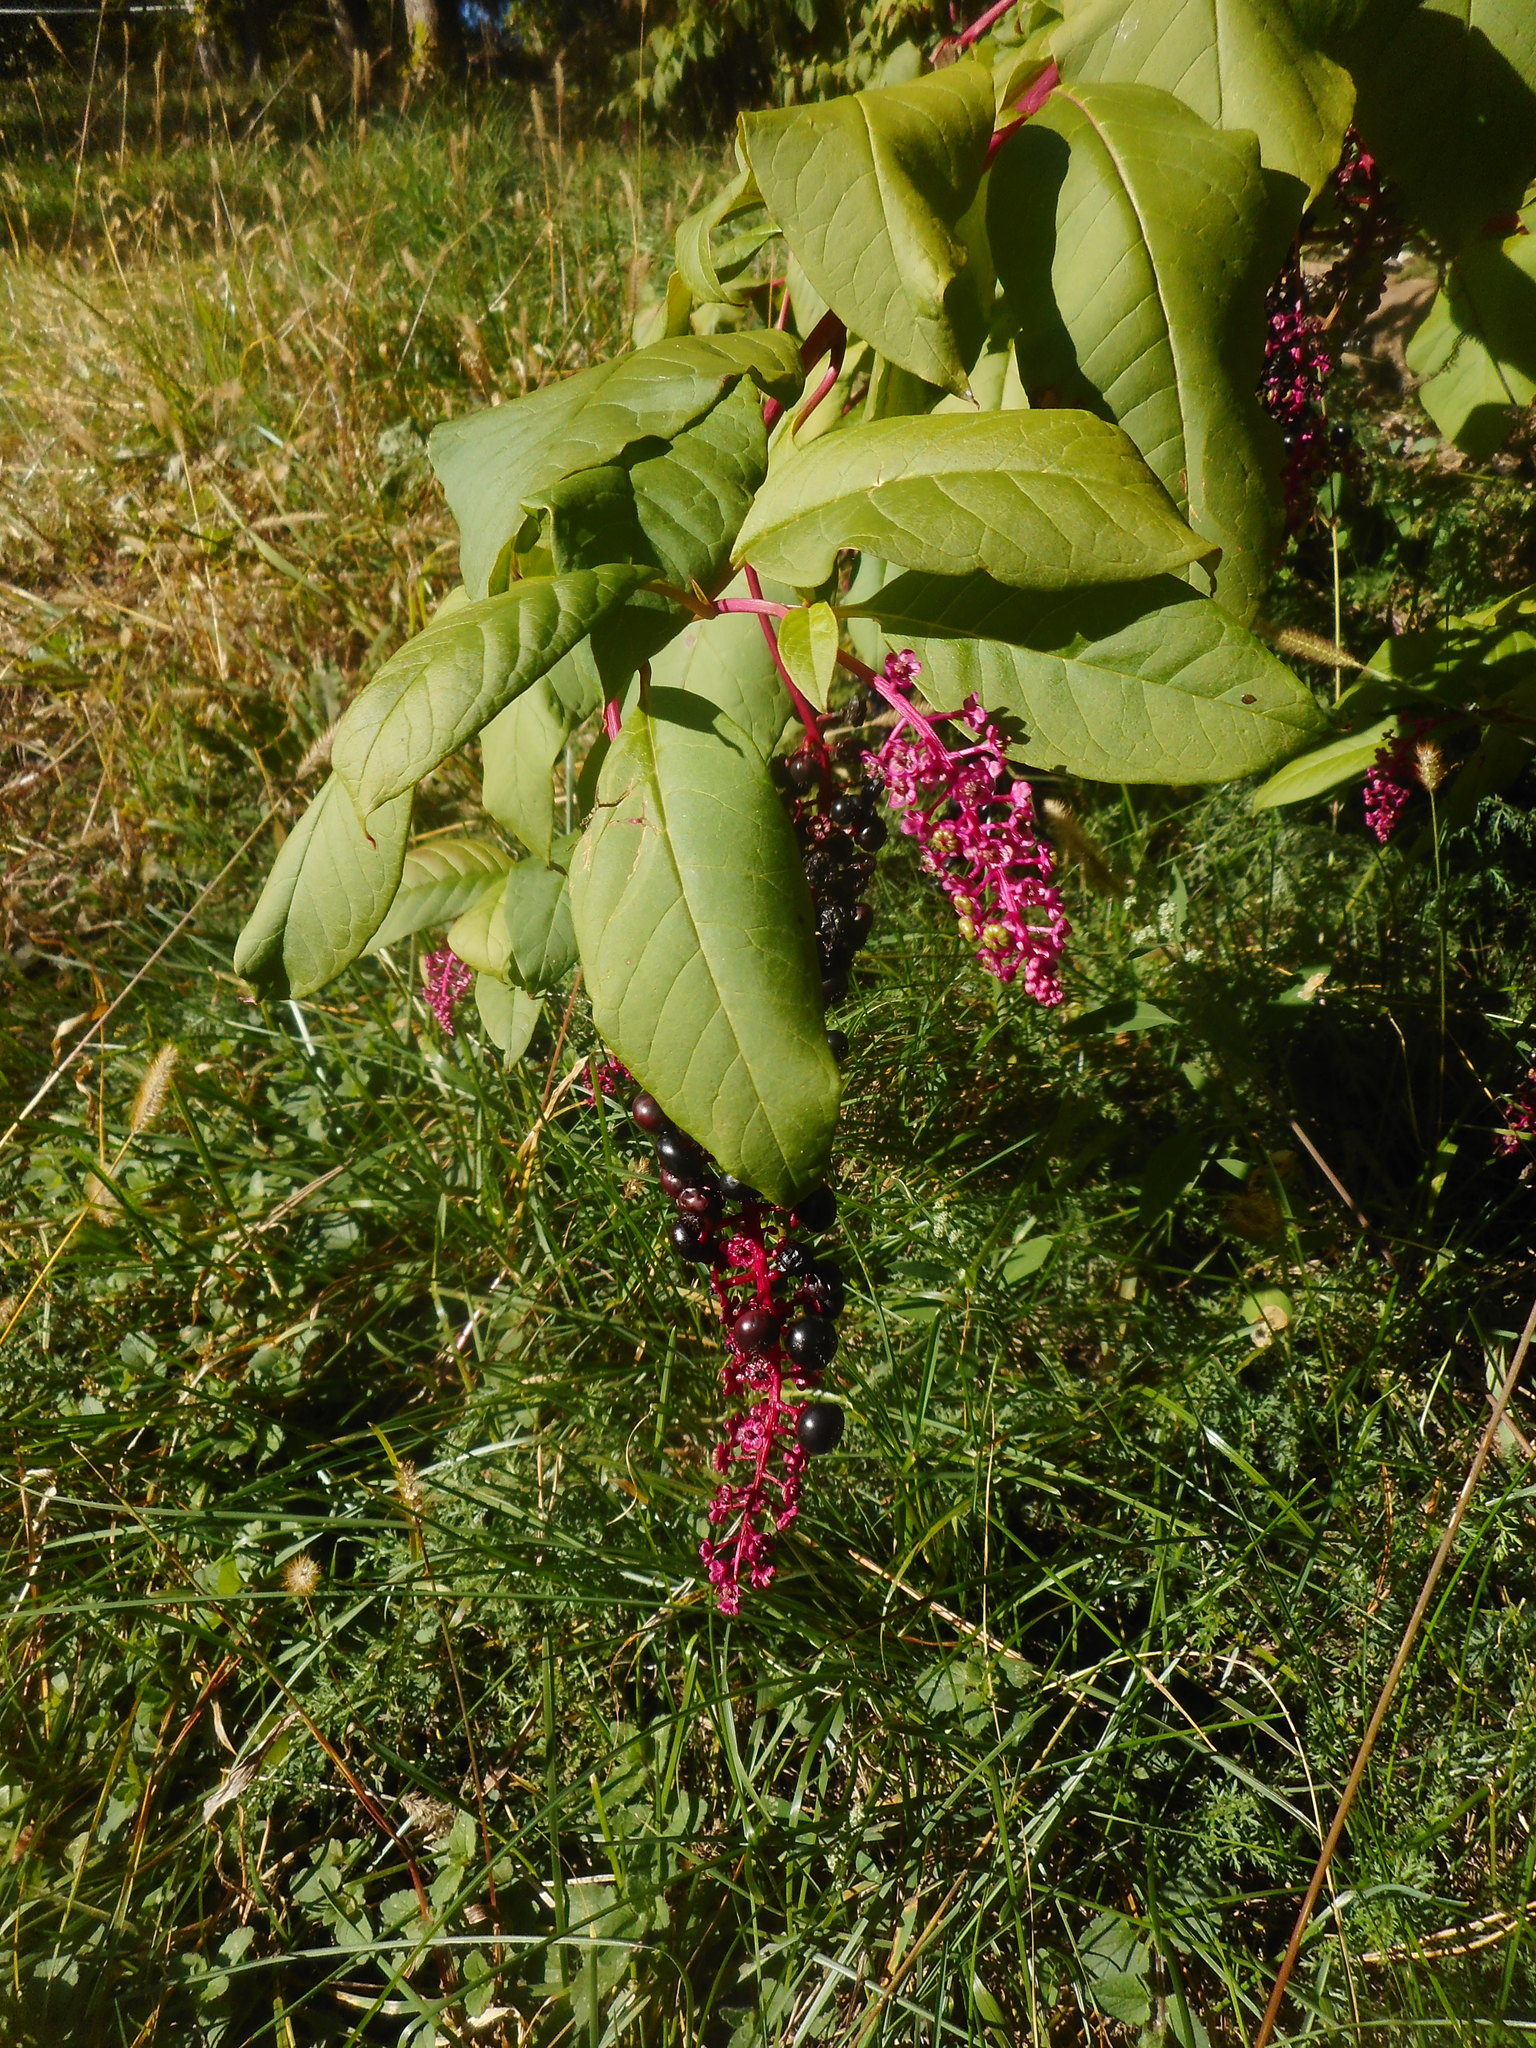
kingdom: Plantae
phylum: Tracheophyta
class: Magnoliopsida
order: Caryophyllales
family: Phytolaccaceae
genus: Phytolacca
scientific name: Phytolacca americana
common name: American pokeweed
